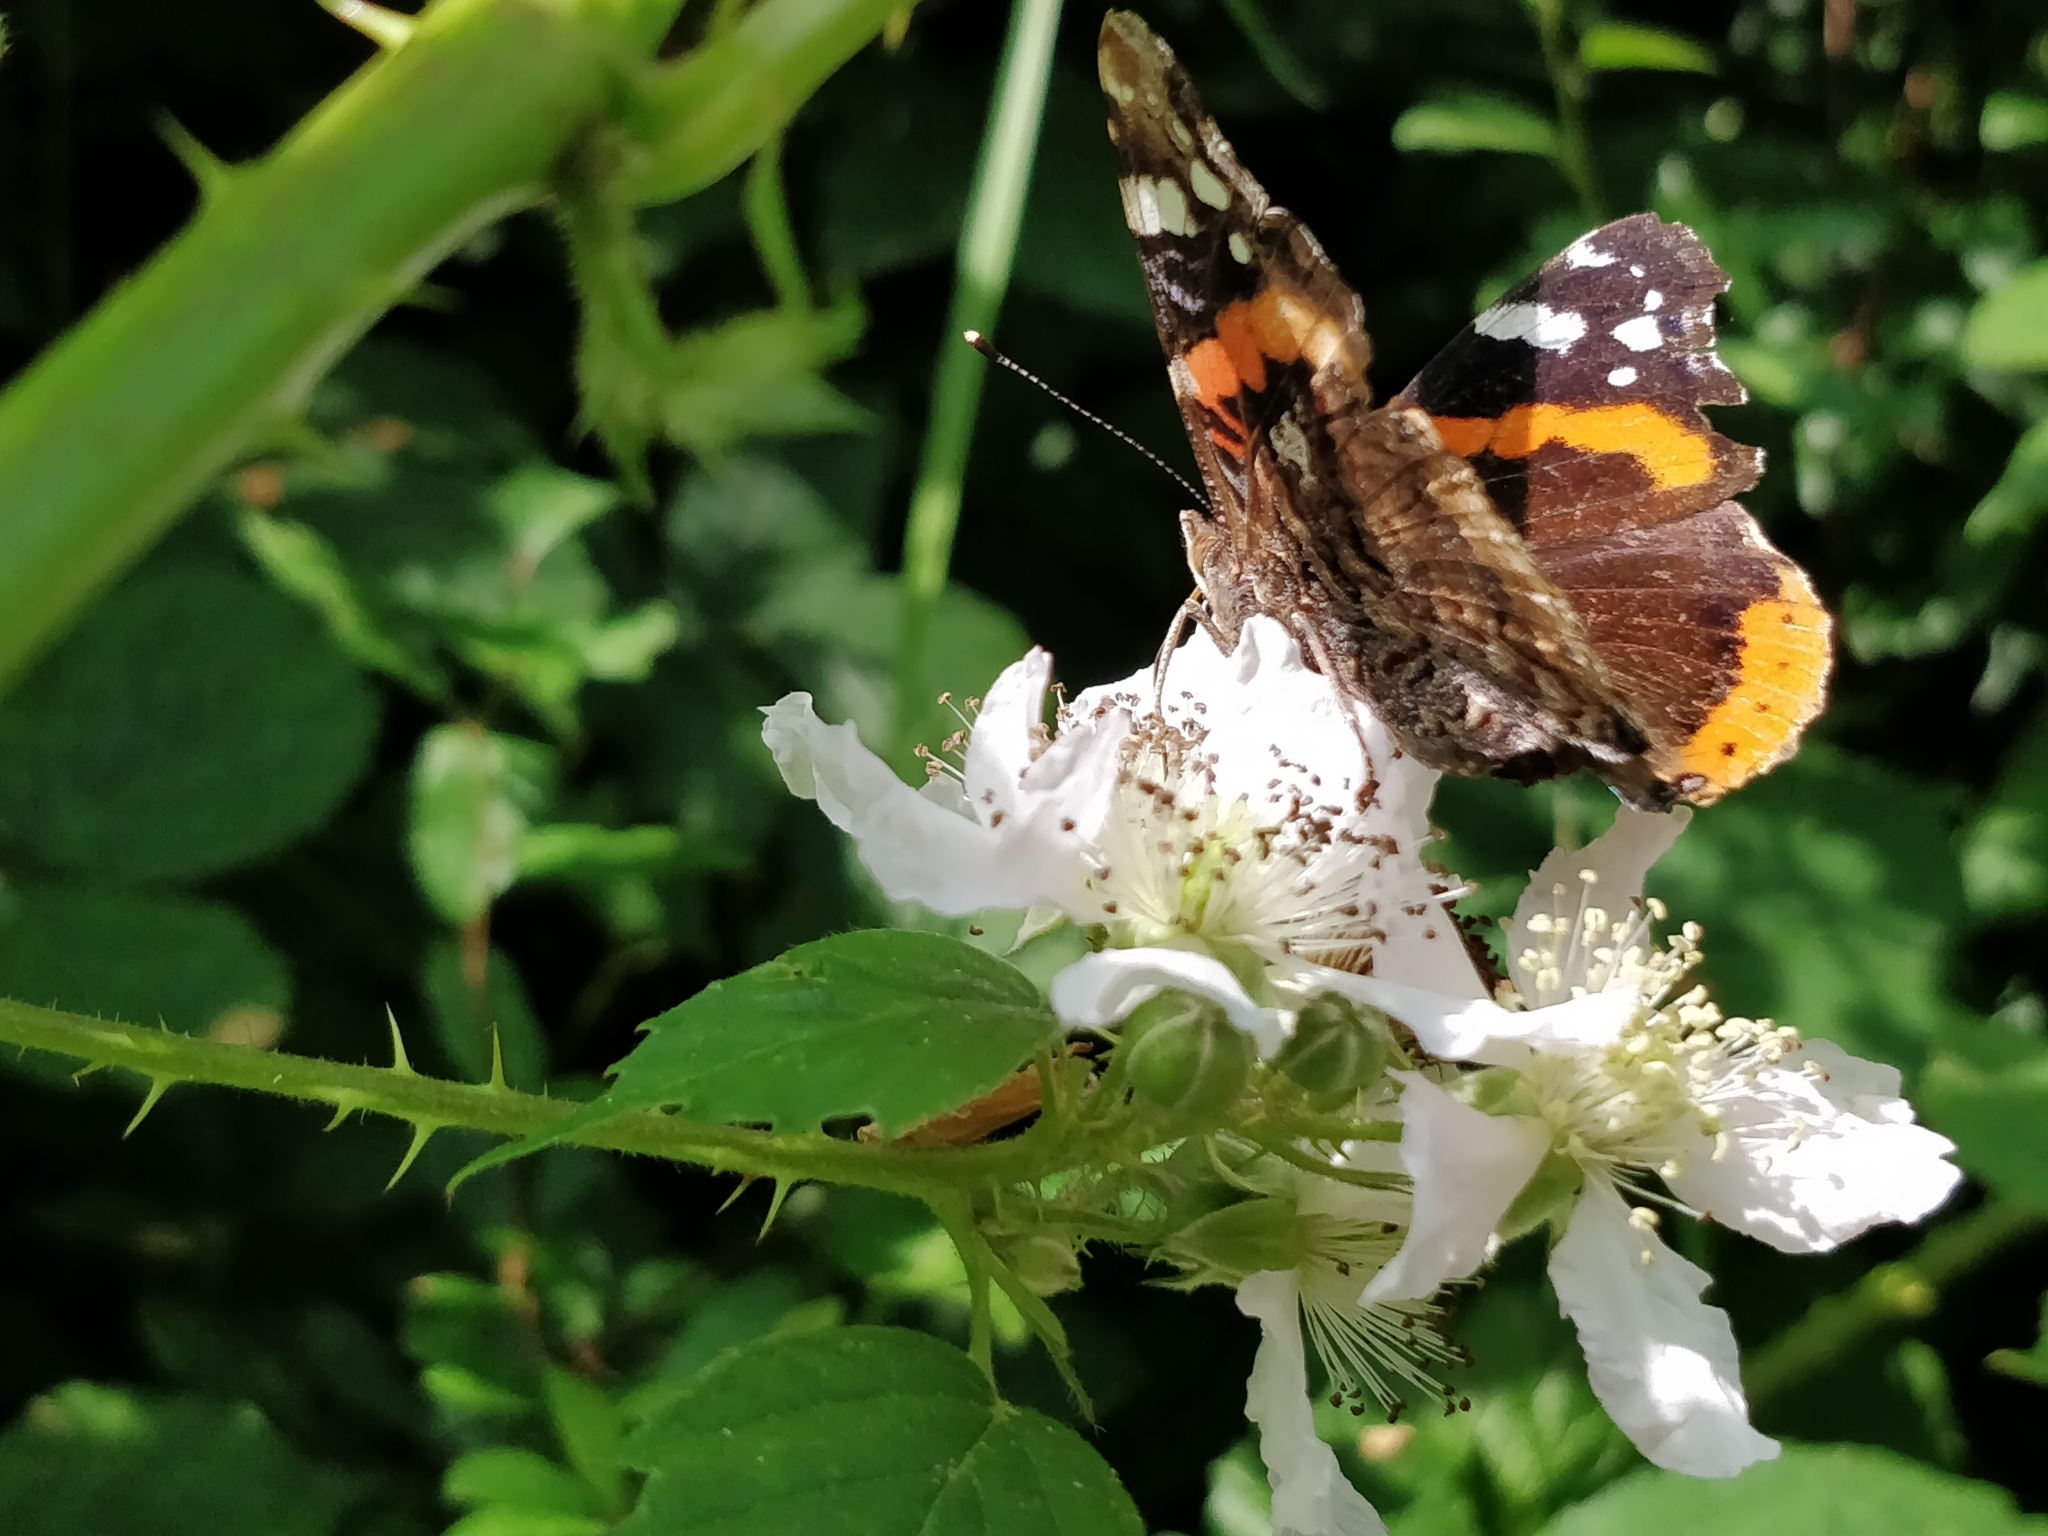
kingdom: Animalia
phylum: Arthropoda
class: Insecta
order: Lepidoptera
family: Nymphalidae
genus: Vanessa
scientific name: Vanessa atalanta
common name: Red admiral
